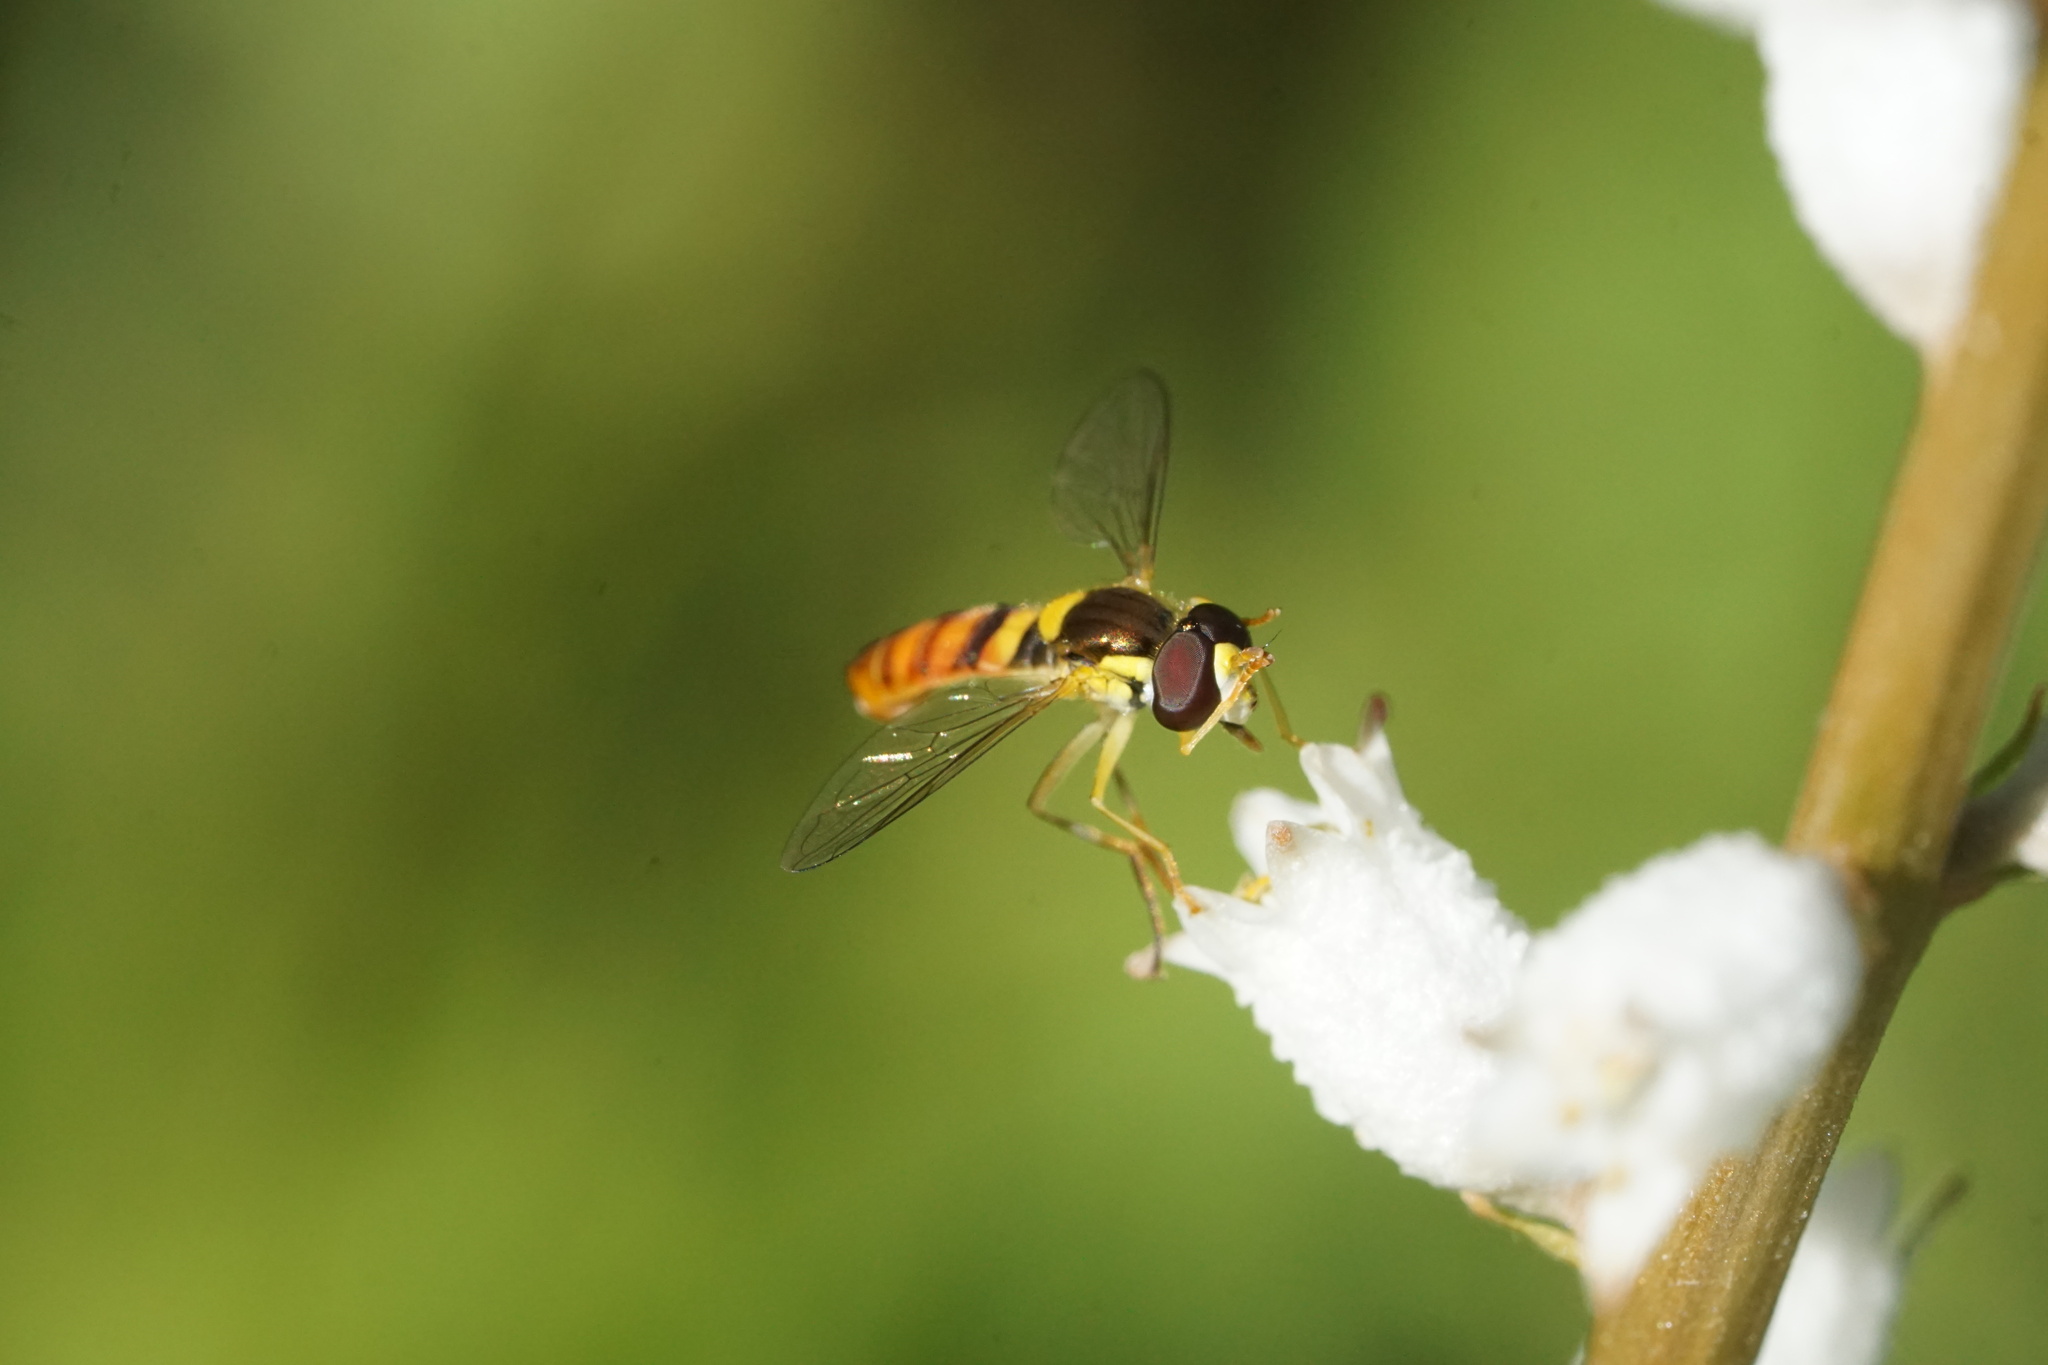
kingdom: Animalia
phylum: Arthropoda
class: Insecta
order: Diptera
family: Syrphidae
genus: Sphaerophoria
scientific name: Sphaerophoria contigua
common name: Tufted globetail
